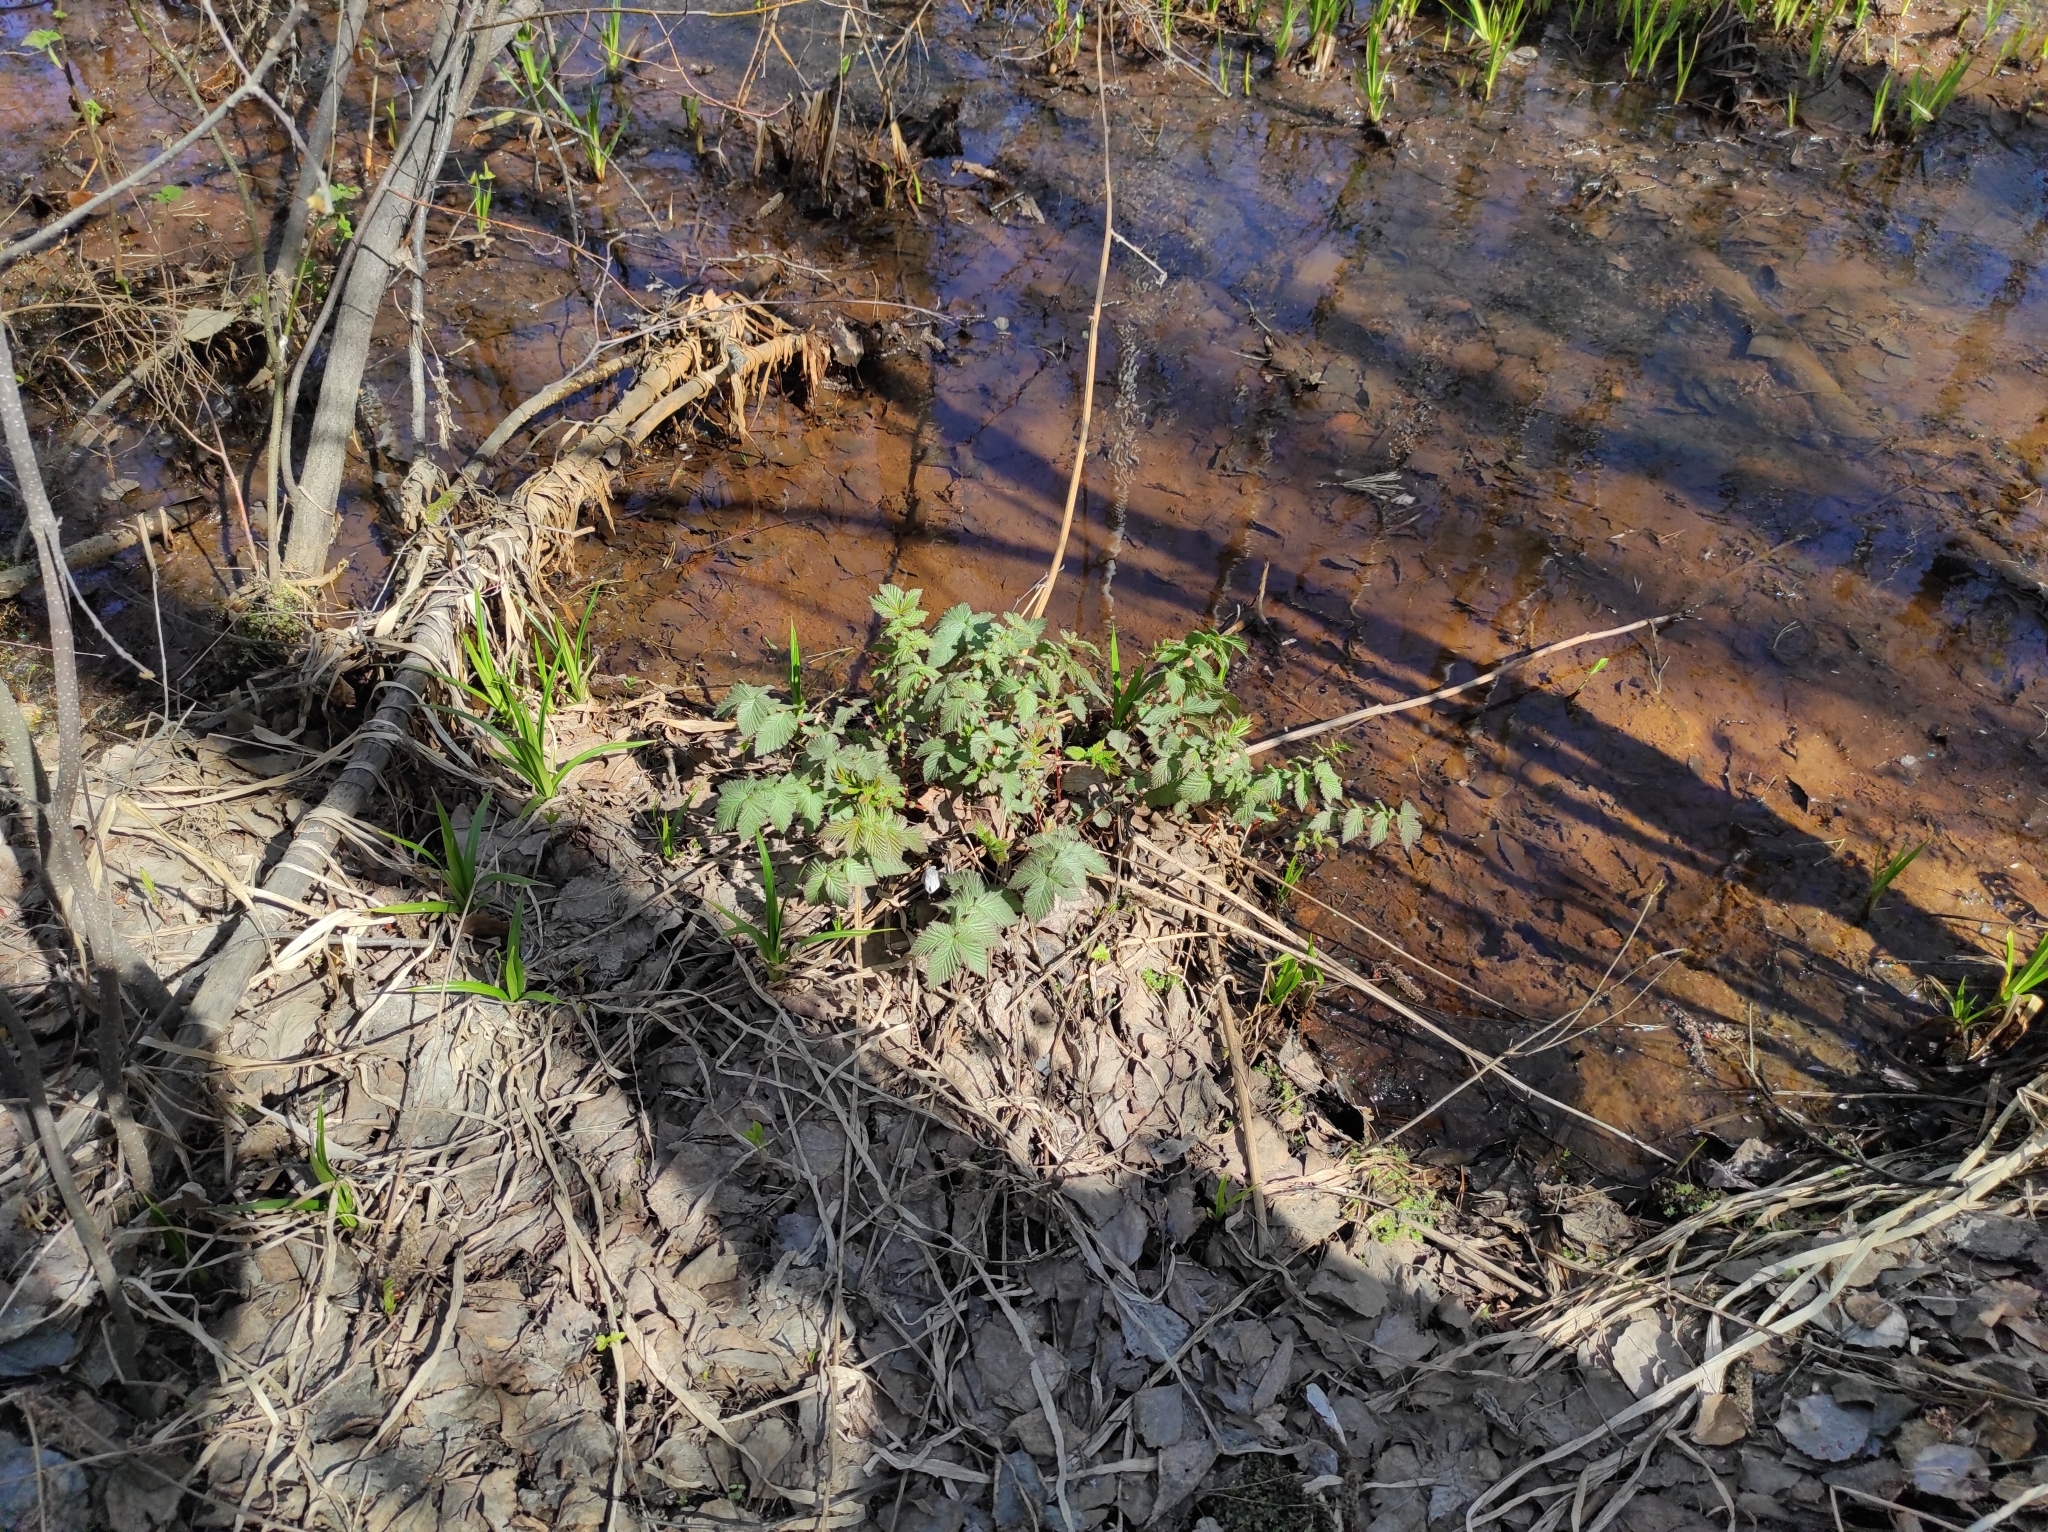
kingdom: Plantae
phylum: Tracheophyta
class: Magnoliopsida
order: Rosales
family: Rosaceae
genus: Filipendula
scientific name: Filipendula ulmaria
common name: Meadowsweet
